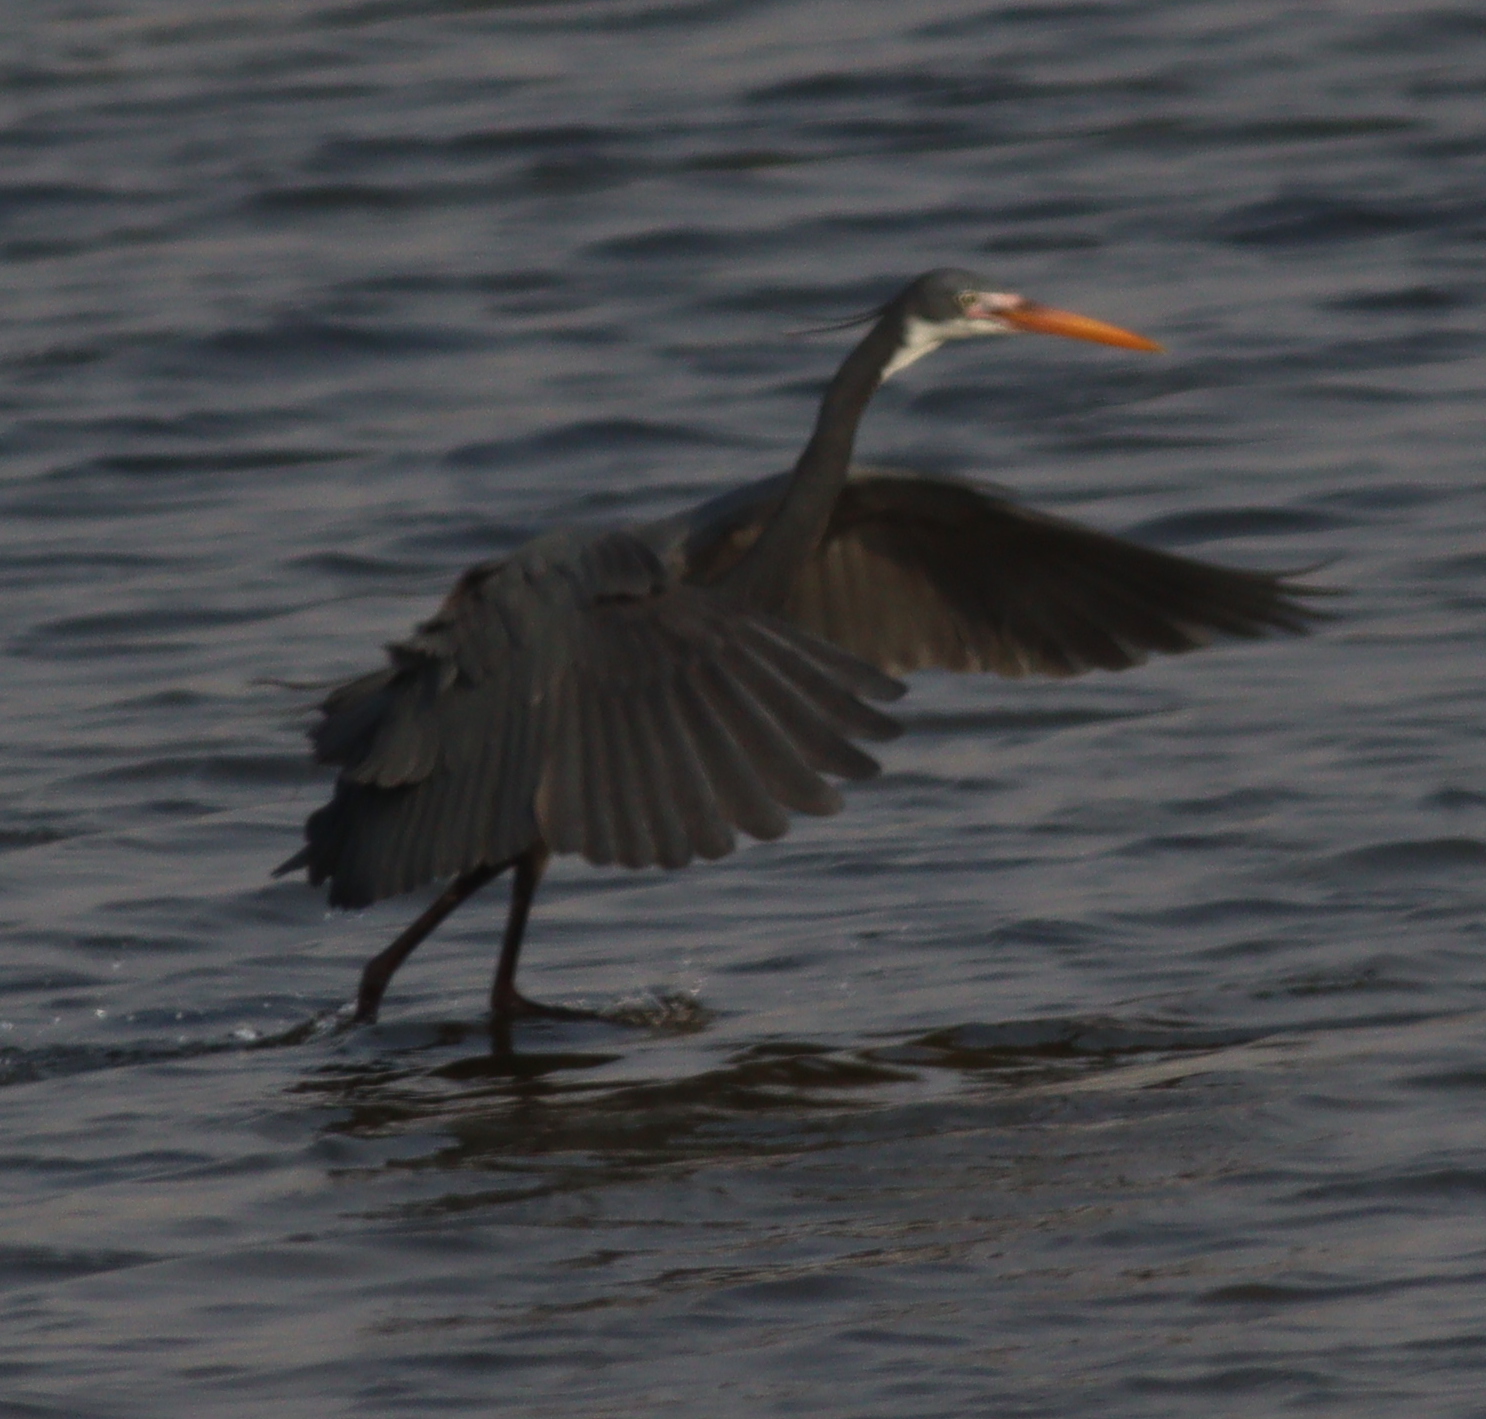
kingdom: Animalia
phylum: Chordata
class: Aves
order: Pelecaniformes
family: Ardeidae
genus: Egretta
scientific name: Egretta gularis
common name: Western reef-heron
